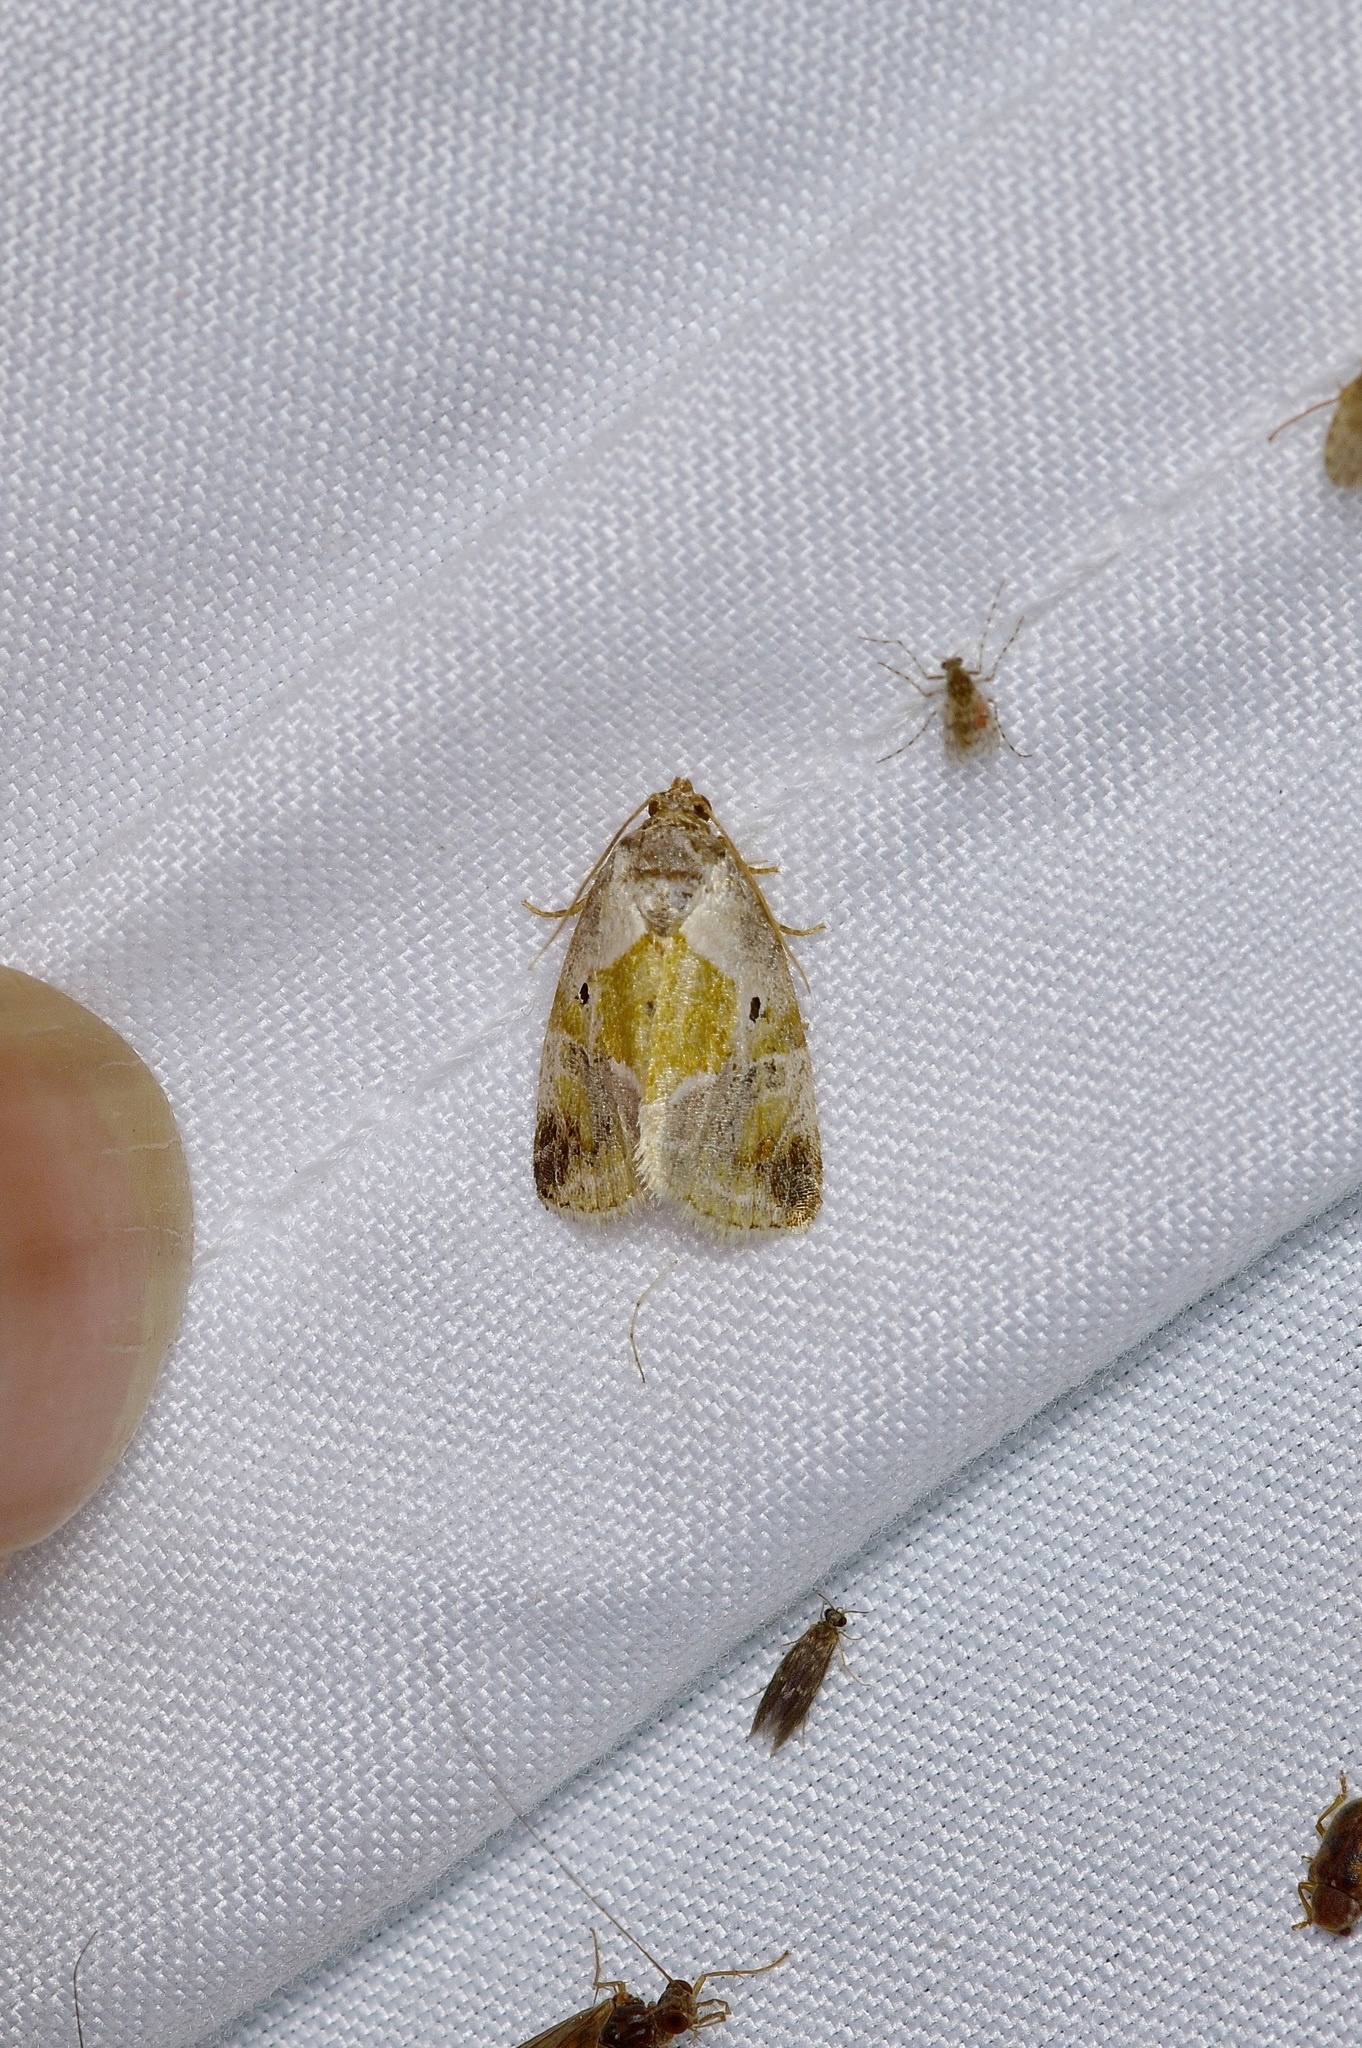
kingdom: Animalia
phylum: Arthropoda
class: Insecta
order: Lepidoptera
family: Noctuidae
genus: Maliattha
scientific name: Maliattha synochitis
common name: Black-dotted glyph
